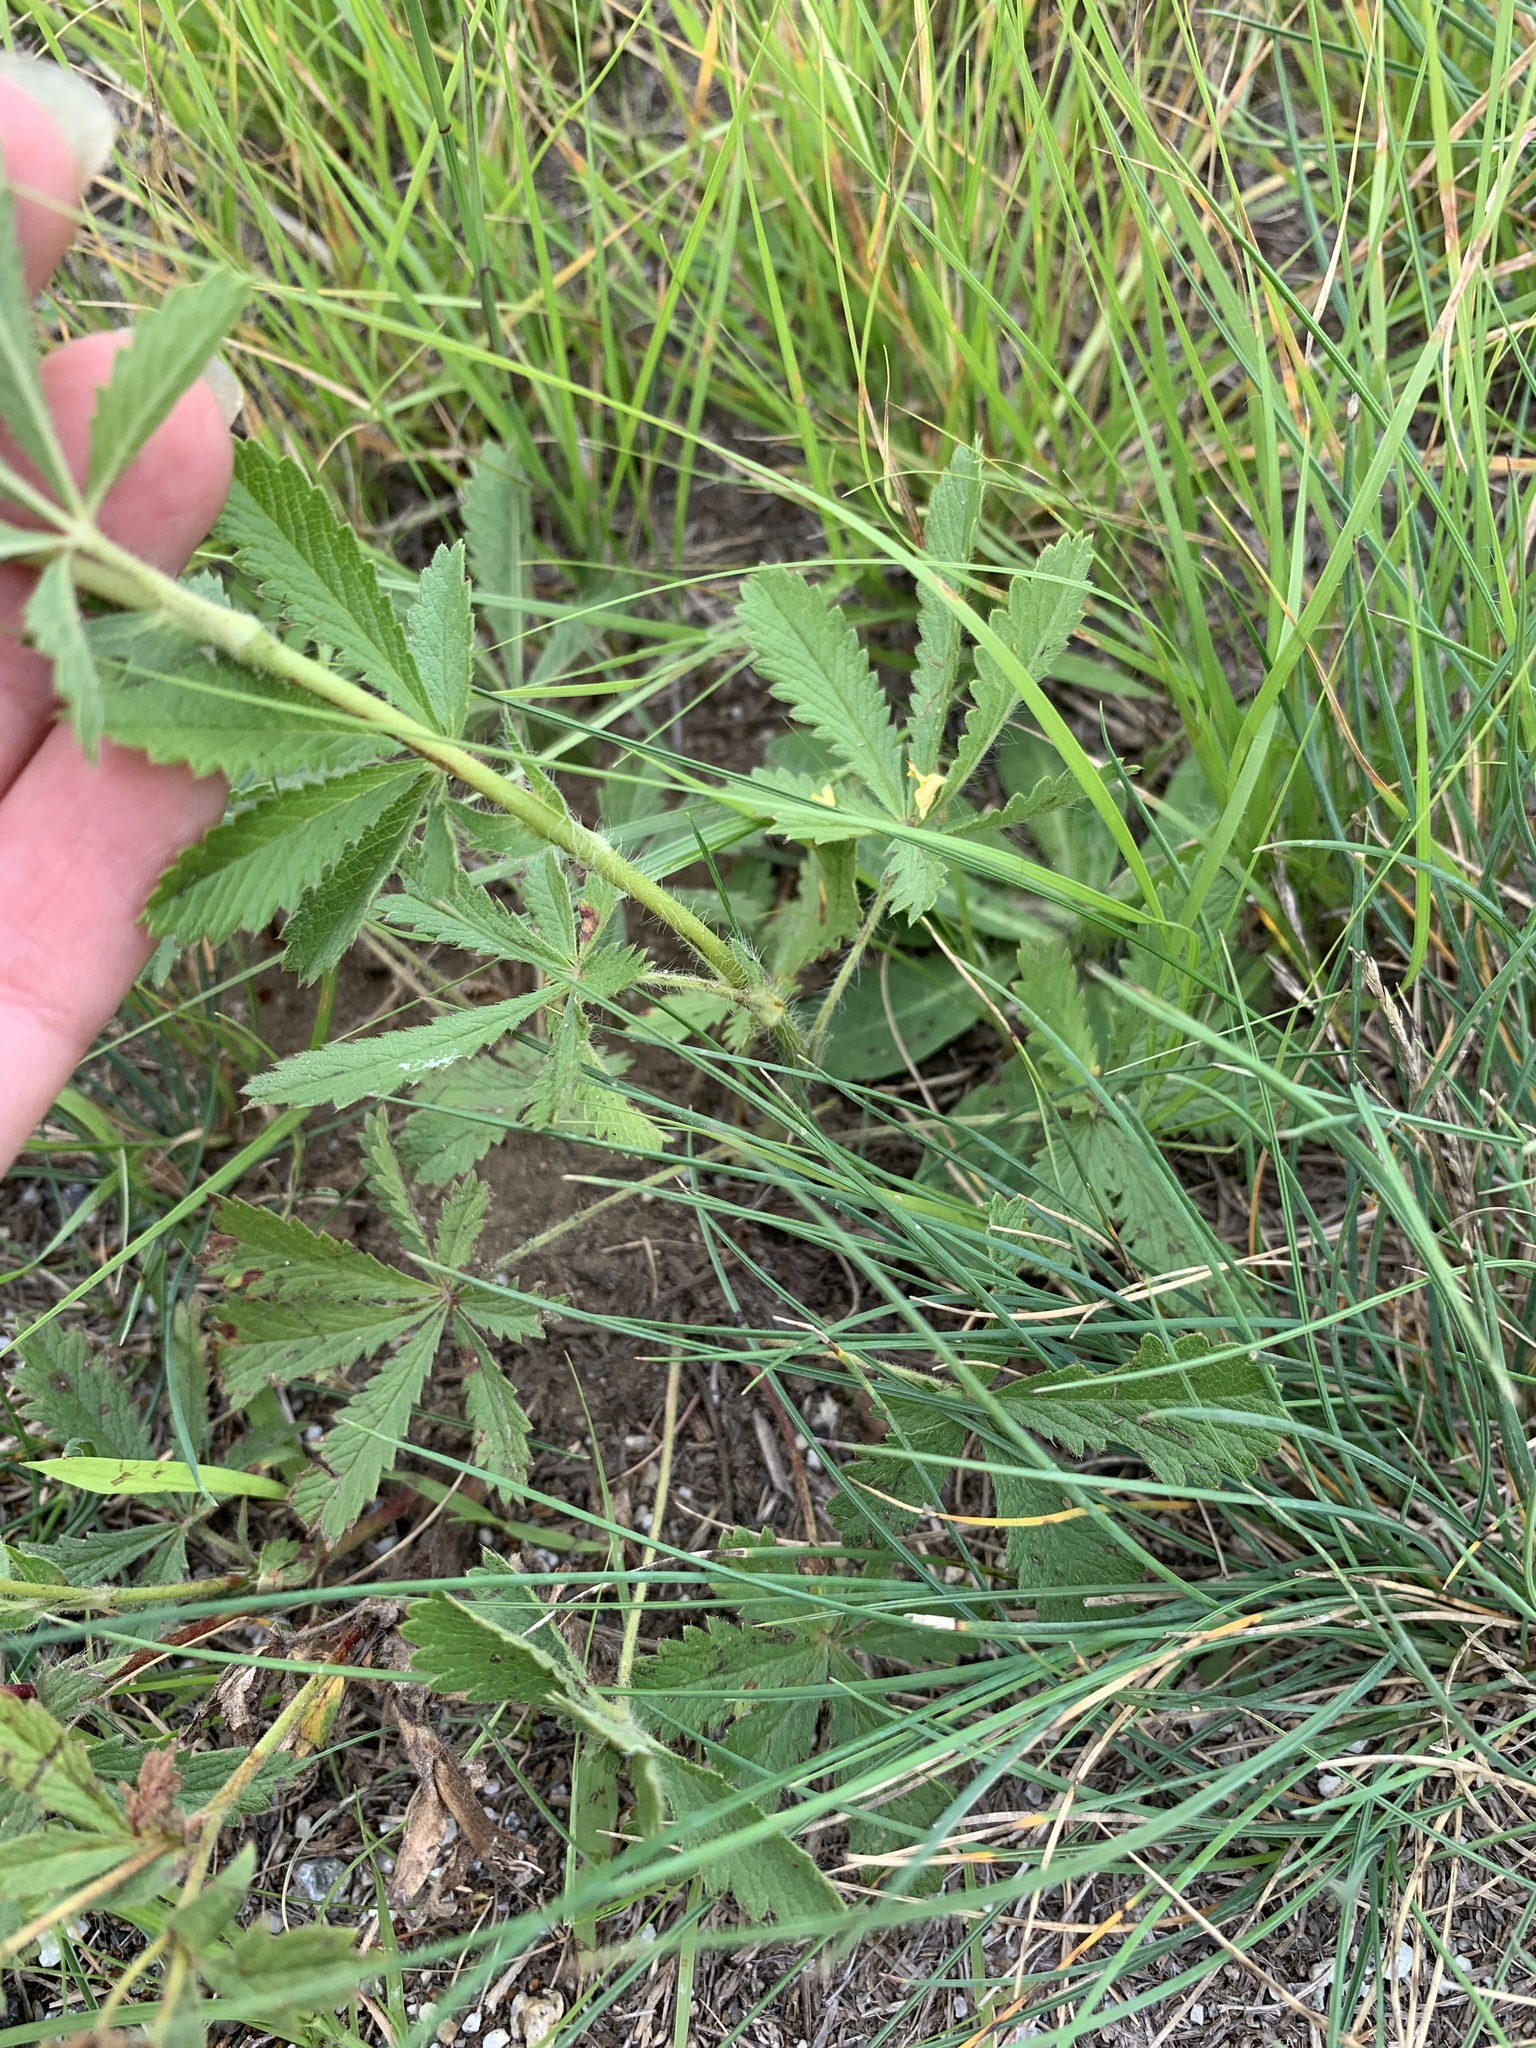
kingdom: Plantae
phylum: Tracheophyta
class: Magnoliopsida
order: Rosales
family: Rosaceae
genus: Potentilla
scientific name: Potentilla recta
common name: Sulphur cinquefoil
